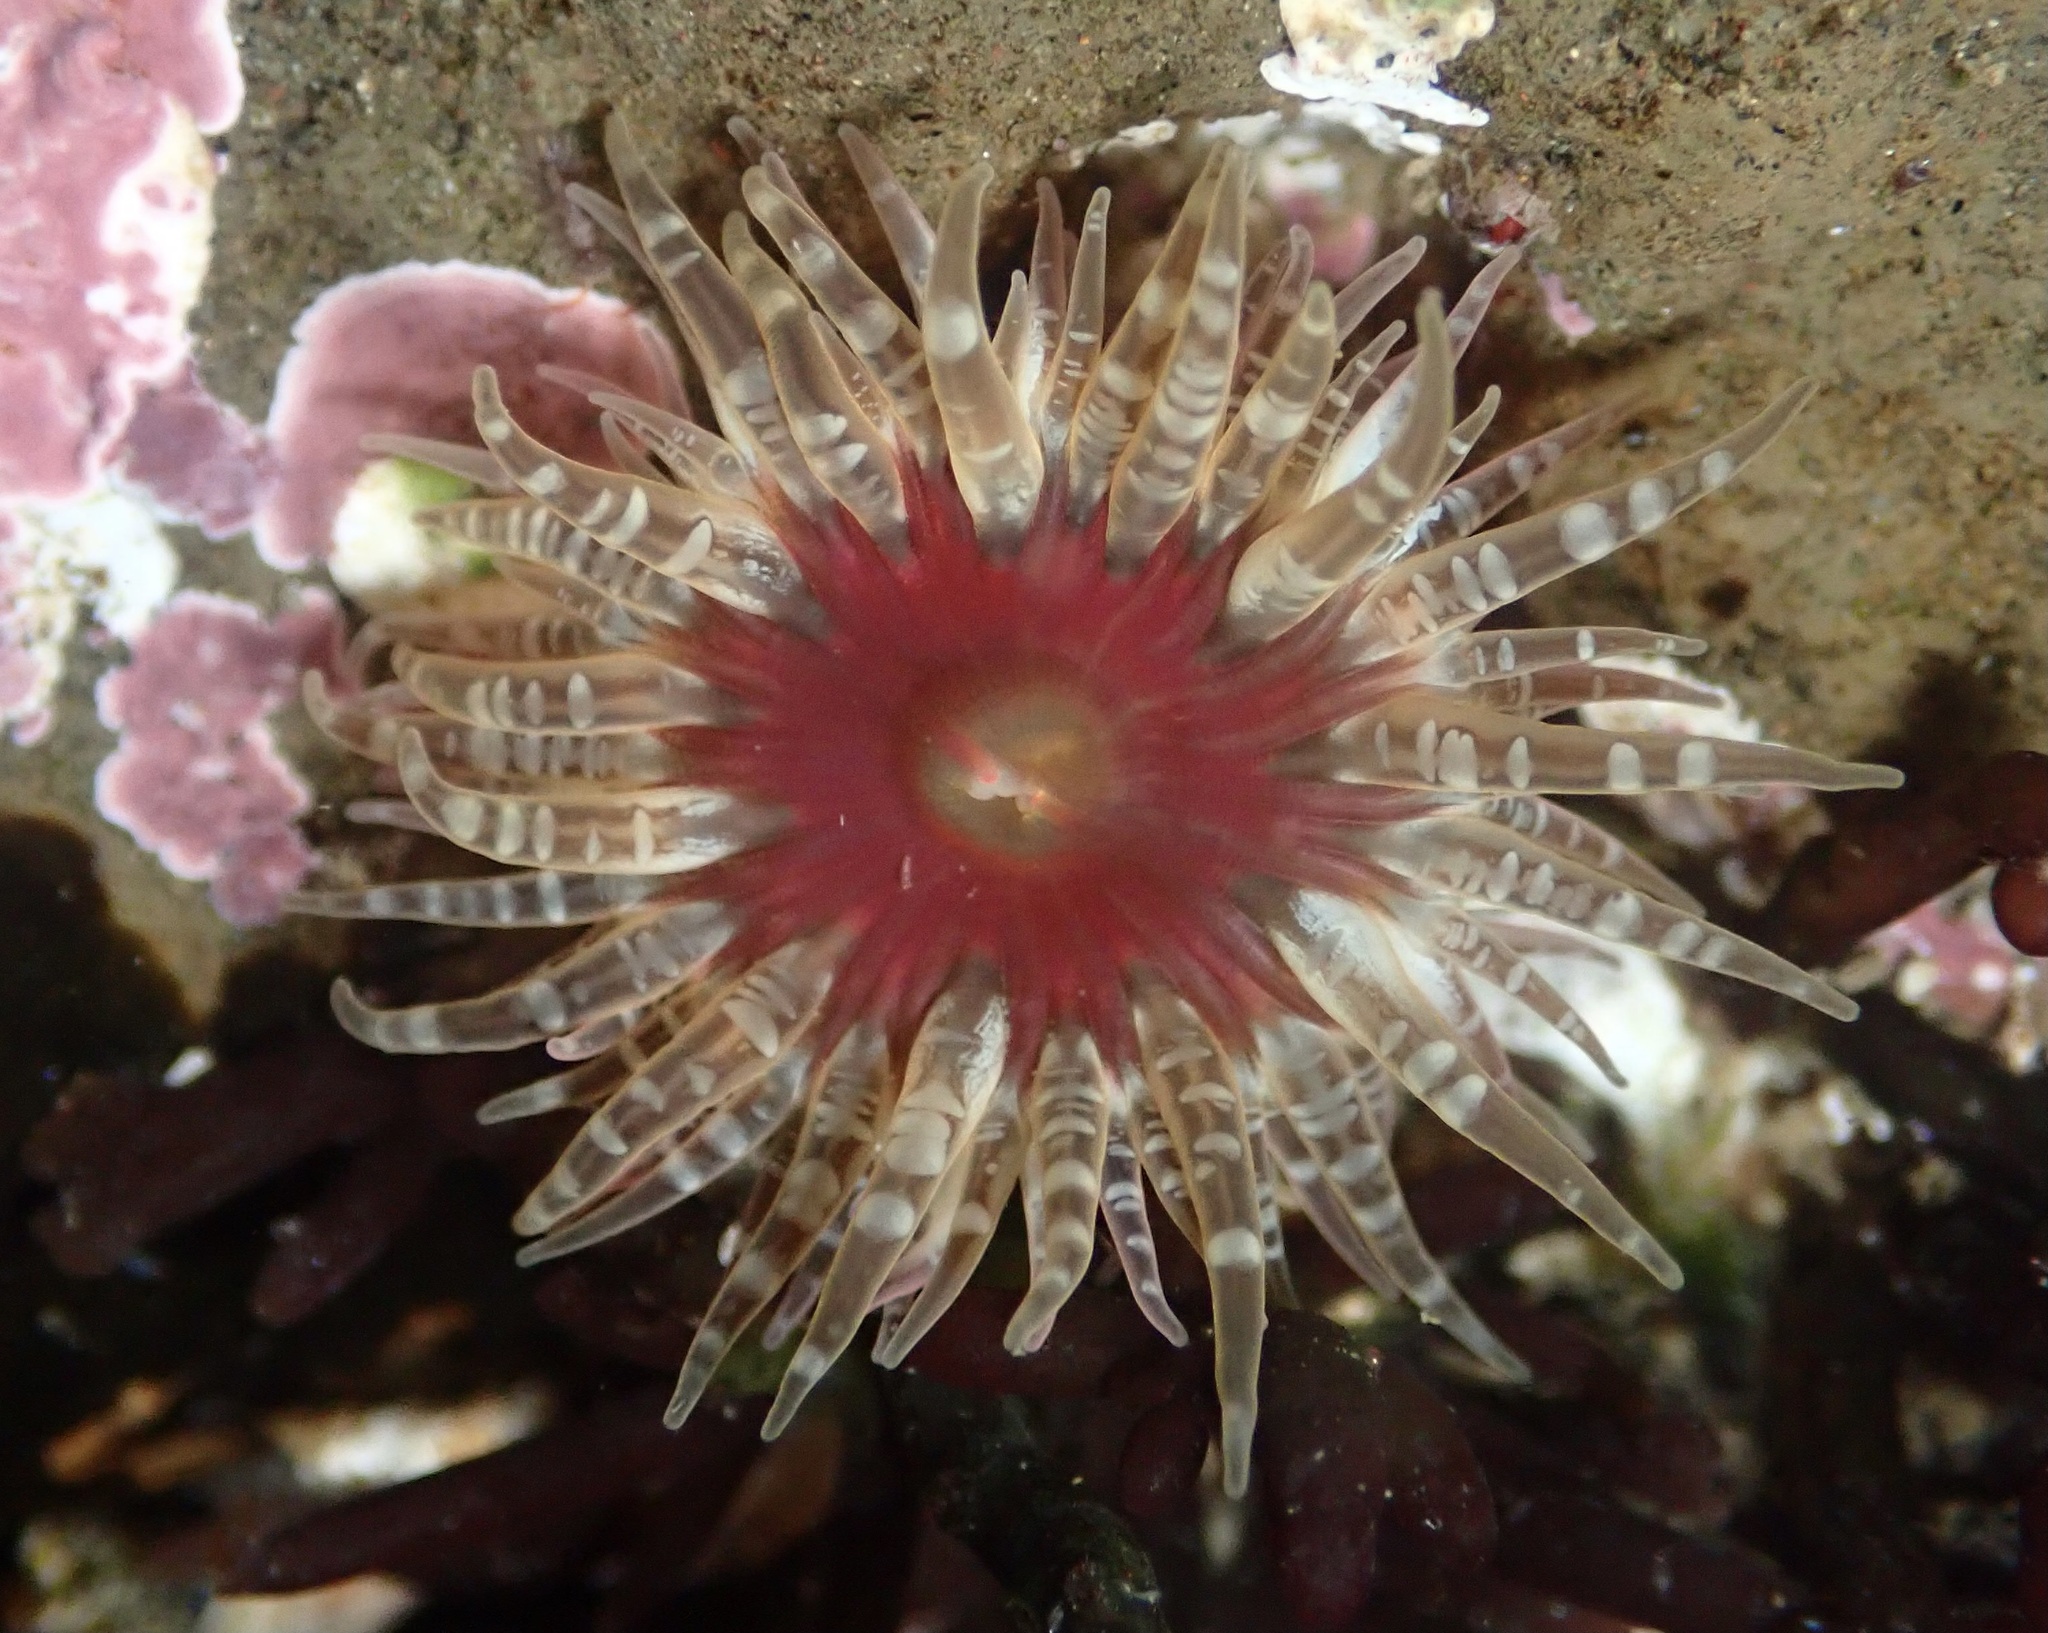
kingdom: Animalia
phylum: Cnidaria
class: Anthozoa
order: Actiniaria
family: Actiniidae
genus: Anthopleura
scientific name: Anthopleura artemisia
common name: Buried sea anemone
